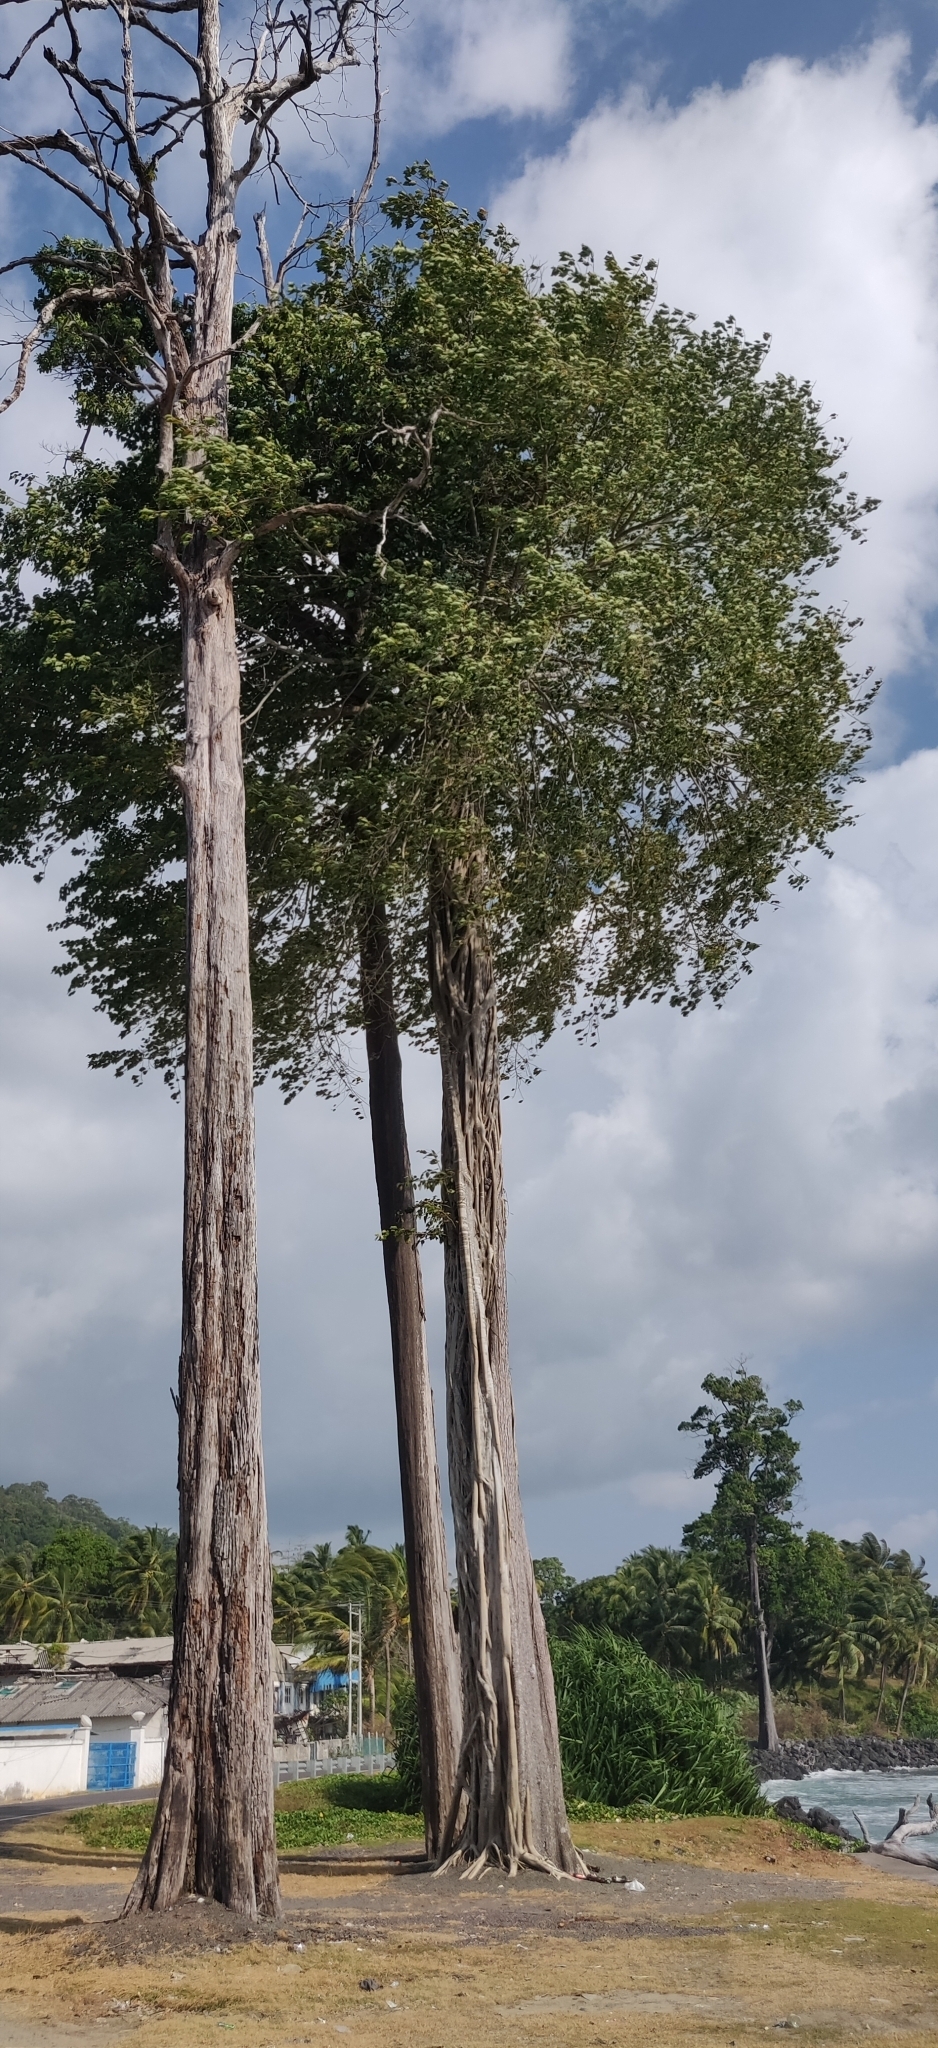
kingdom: Plantae
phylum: Tracheophyta
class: Magnoliopsida
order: Ericales
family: Sapotaceae
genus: Manilkara
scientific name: Manilkara littoralis
